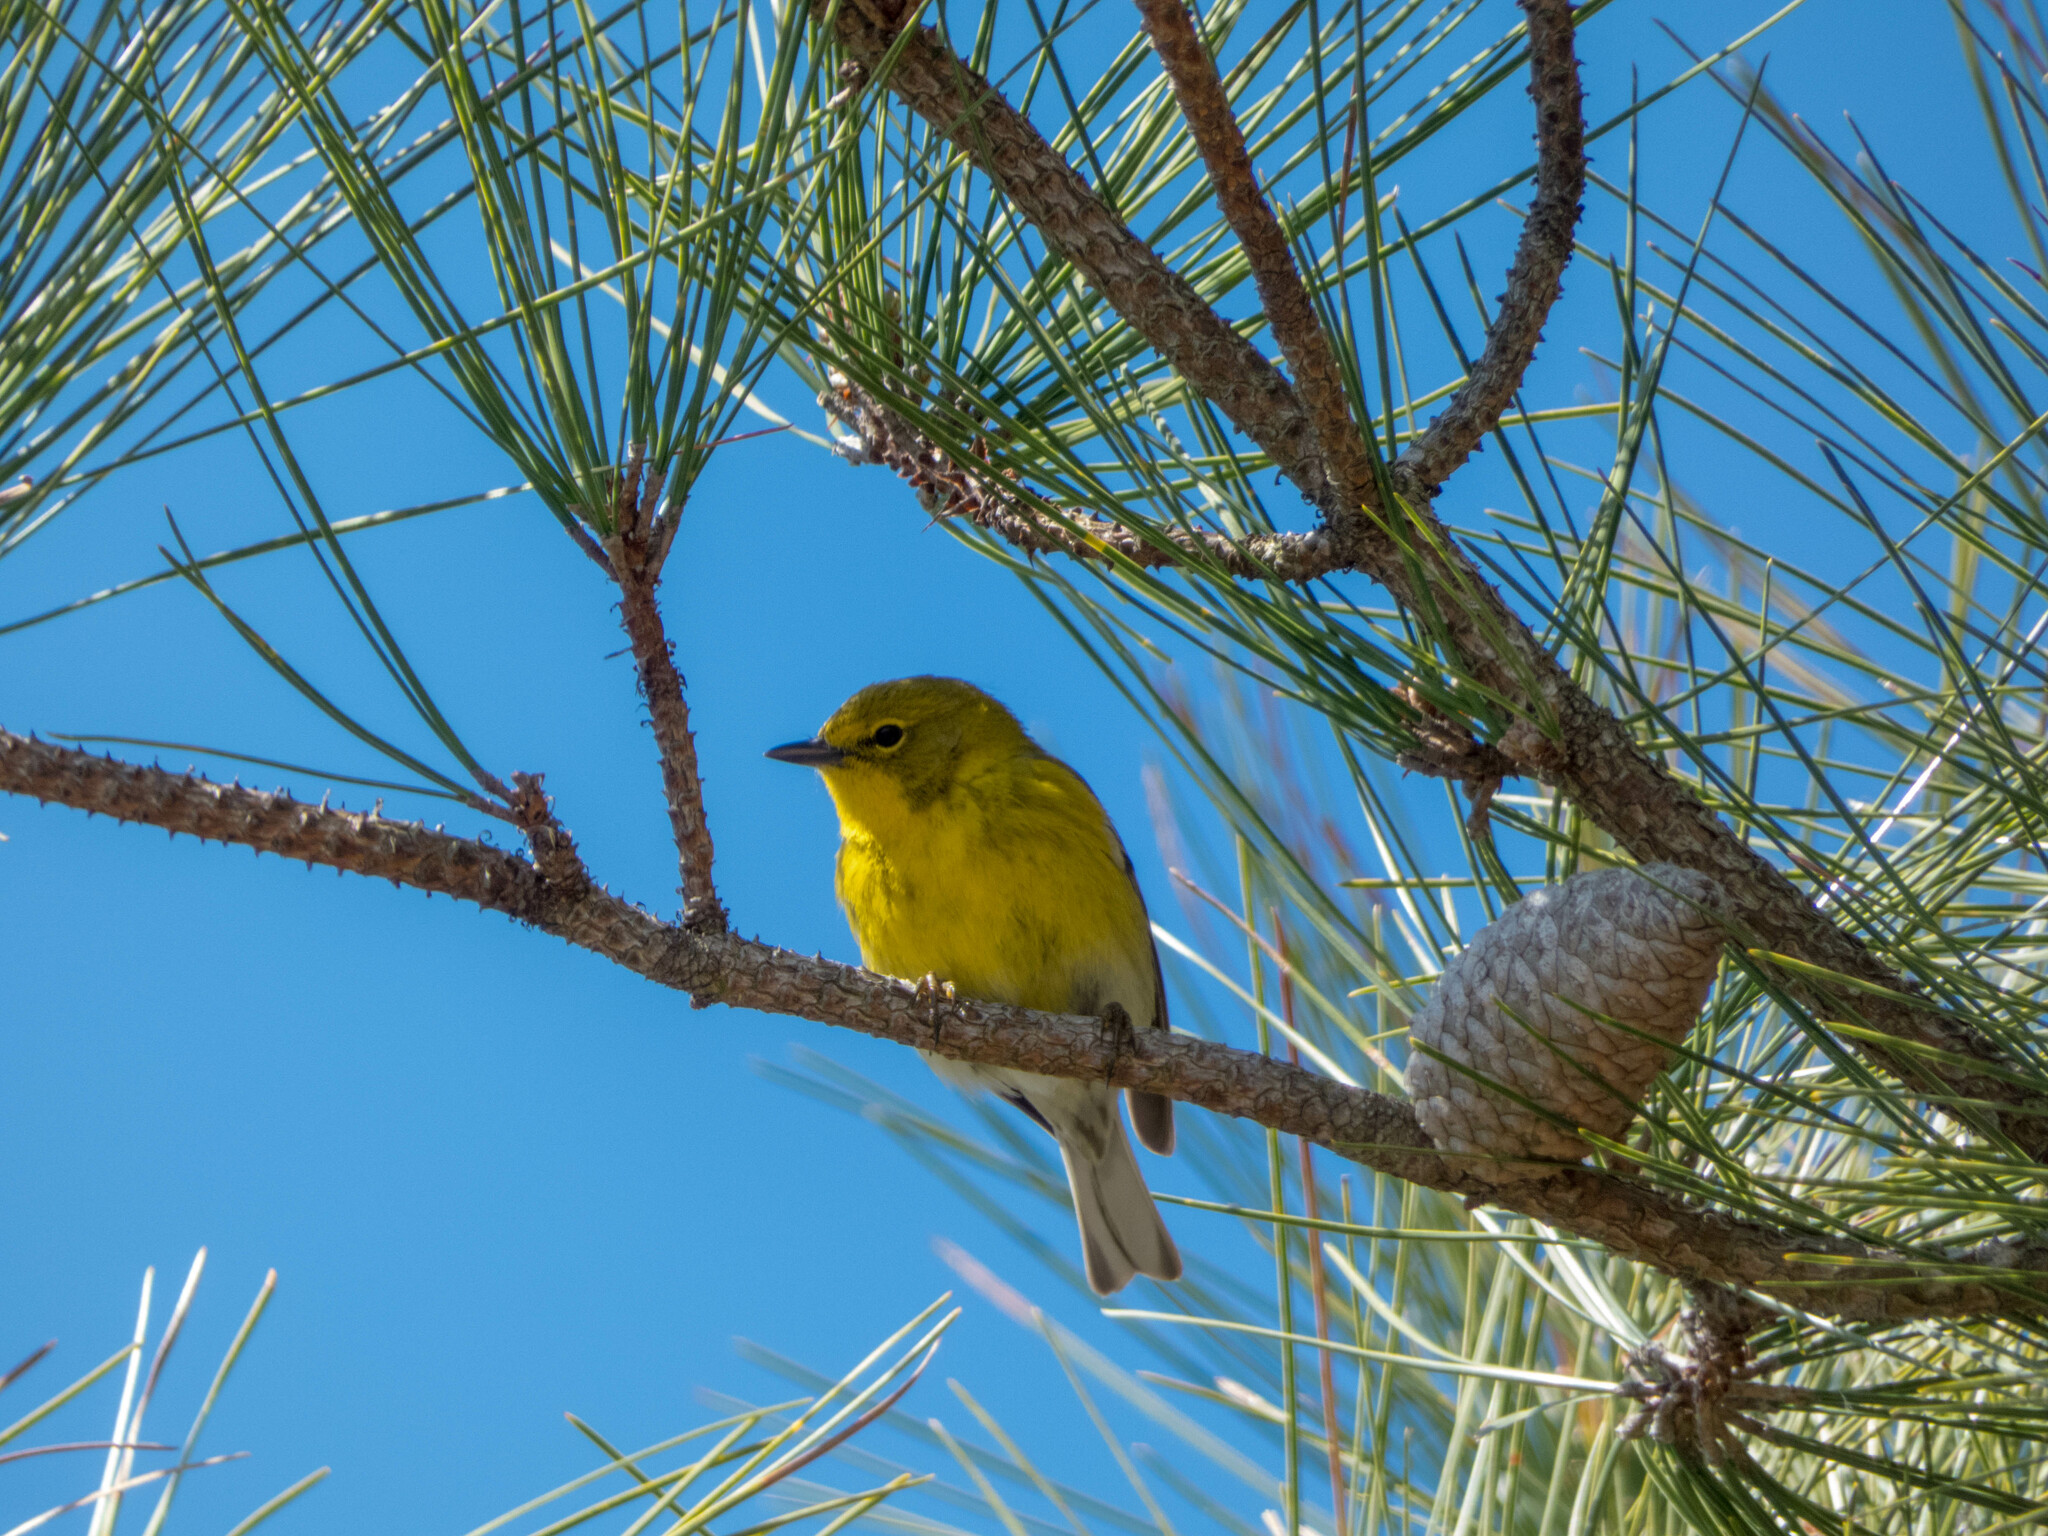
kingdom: Animalia
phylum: Chordata
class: Aves
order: Passeriformes
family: Parulidae
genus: Setophaga
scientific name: Setophaga pinus
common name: Pine warbler
